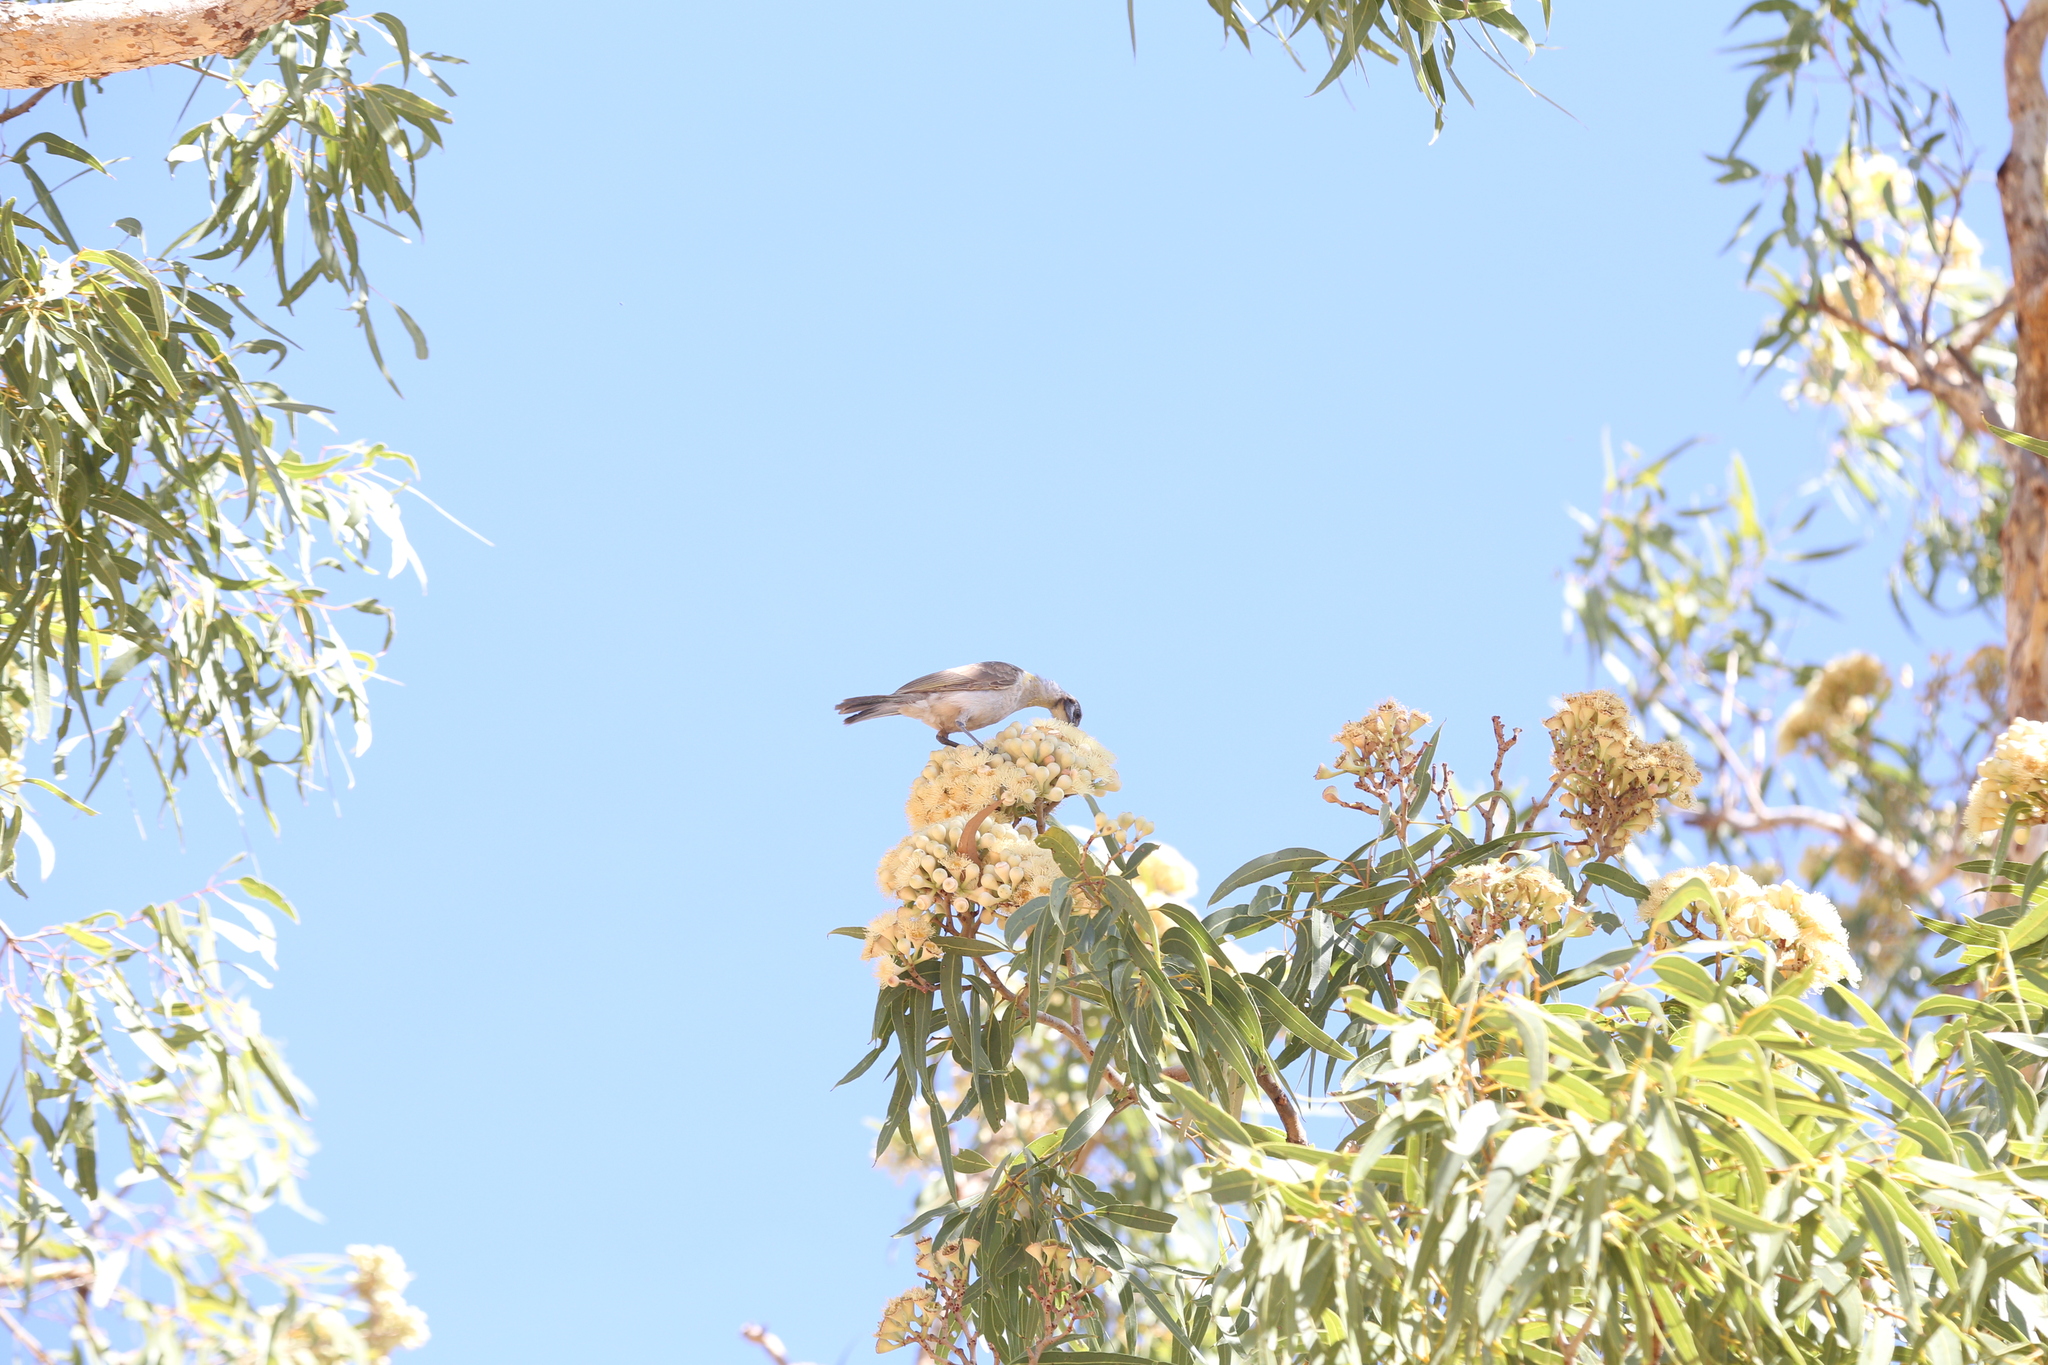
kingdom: Animalia
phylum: Chordata
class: Aves
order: Passeriformes
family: Meliphagidae
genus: Philemon
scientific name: Philemon citreogularis
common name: Little friarbird
